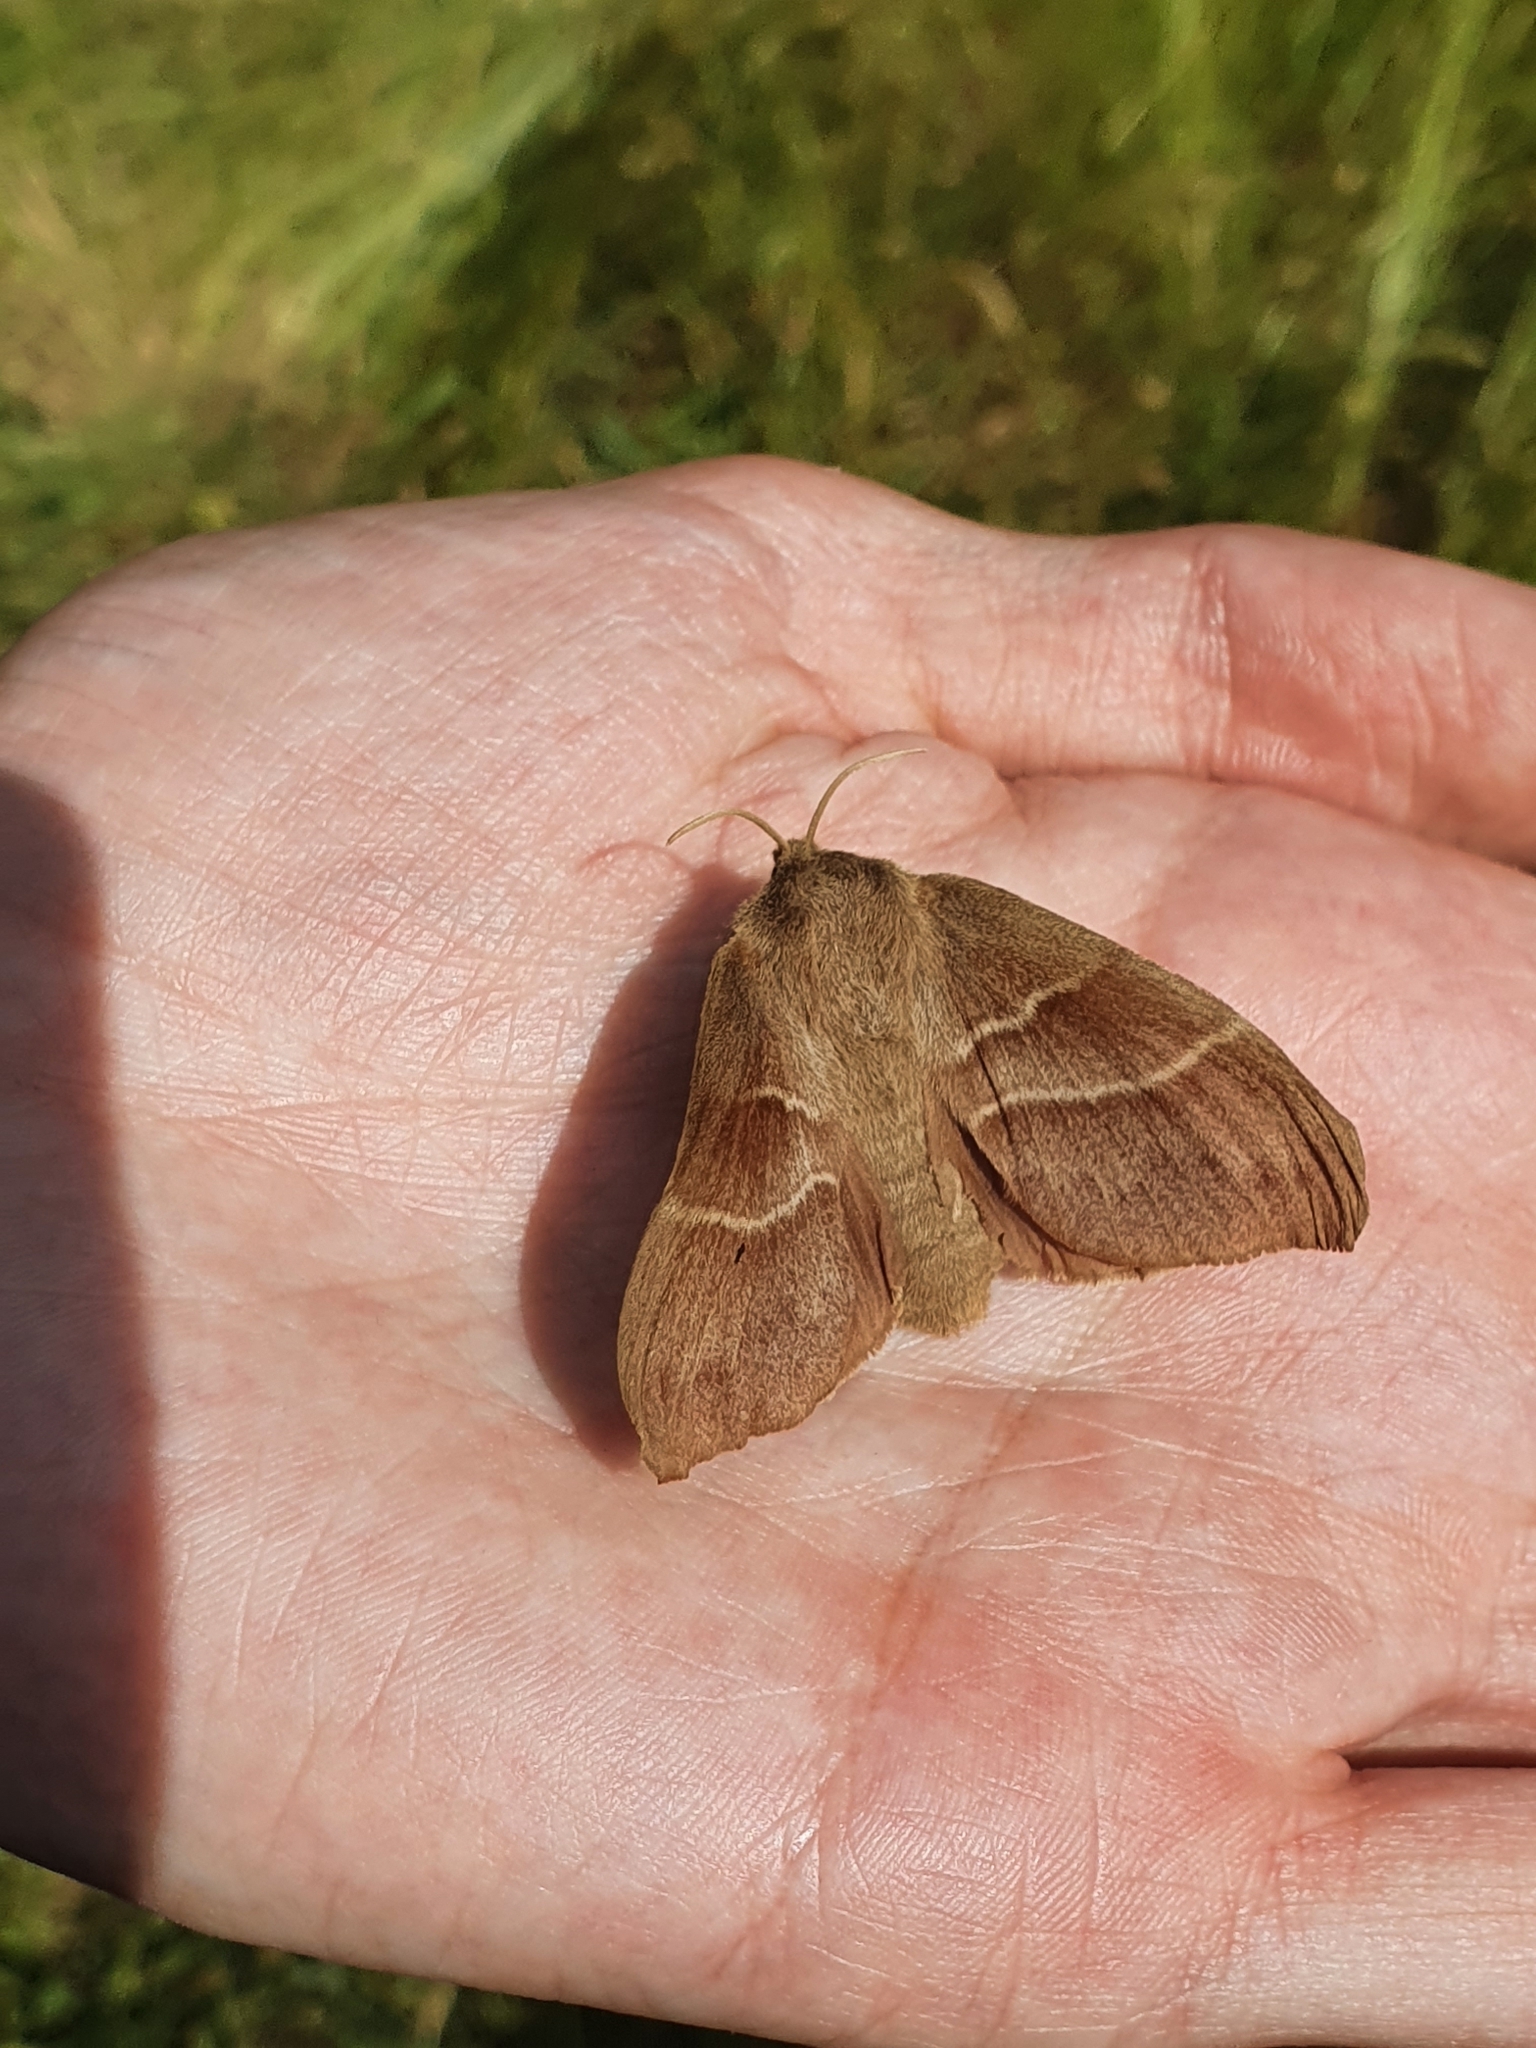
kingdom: Animalia
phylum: Arthropoda
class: Insecta
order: Lepidoptera
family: Lasiocampidae
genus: Macrothylacia
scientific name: Macrothylacia rubi
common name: Fox moth
